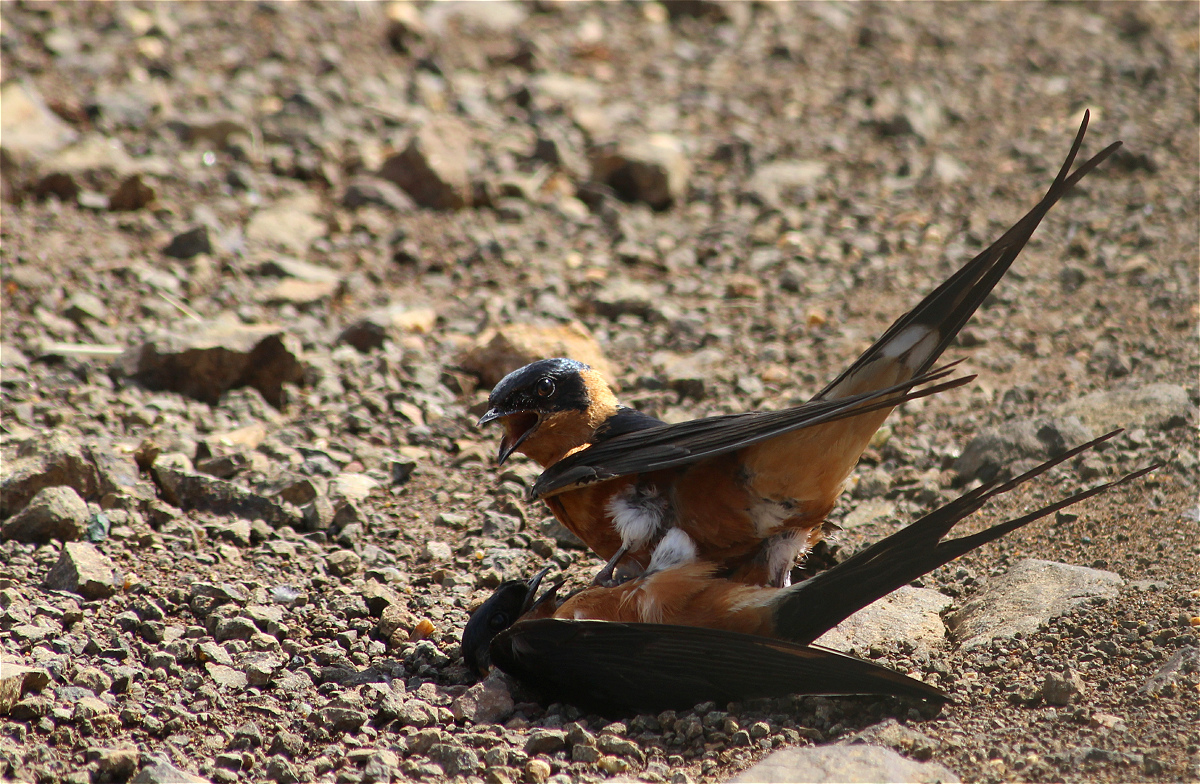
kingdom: Animalia
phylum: Chordata
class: Aves
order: Passeriformes
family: Hirundinidae
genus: Cecropis
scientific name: Cecropis semirufa
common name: Red-breasted swallow
